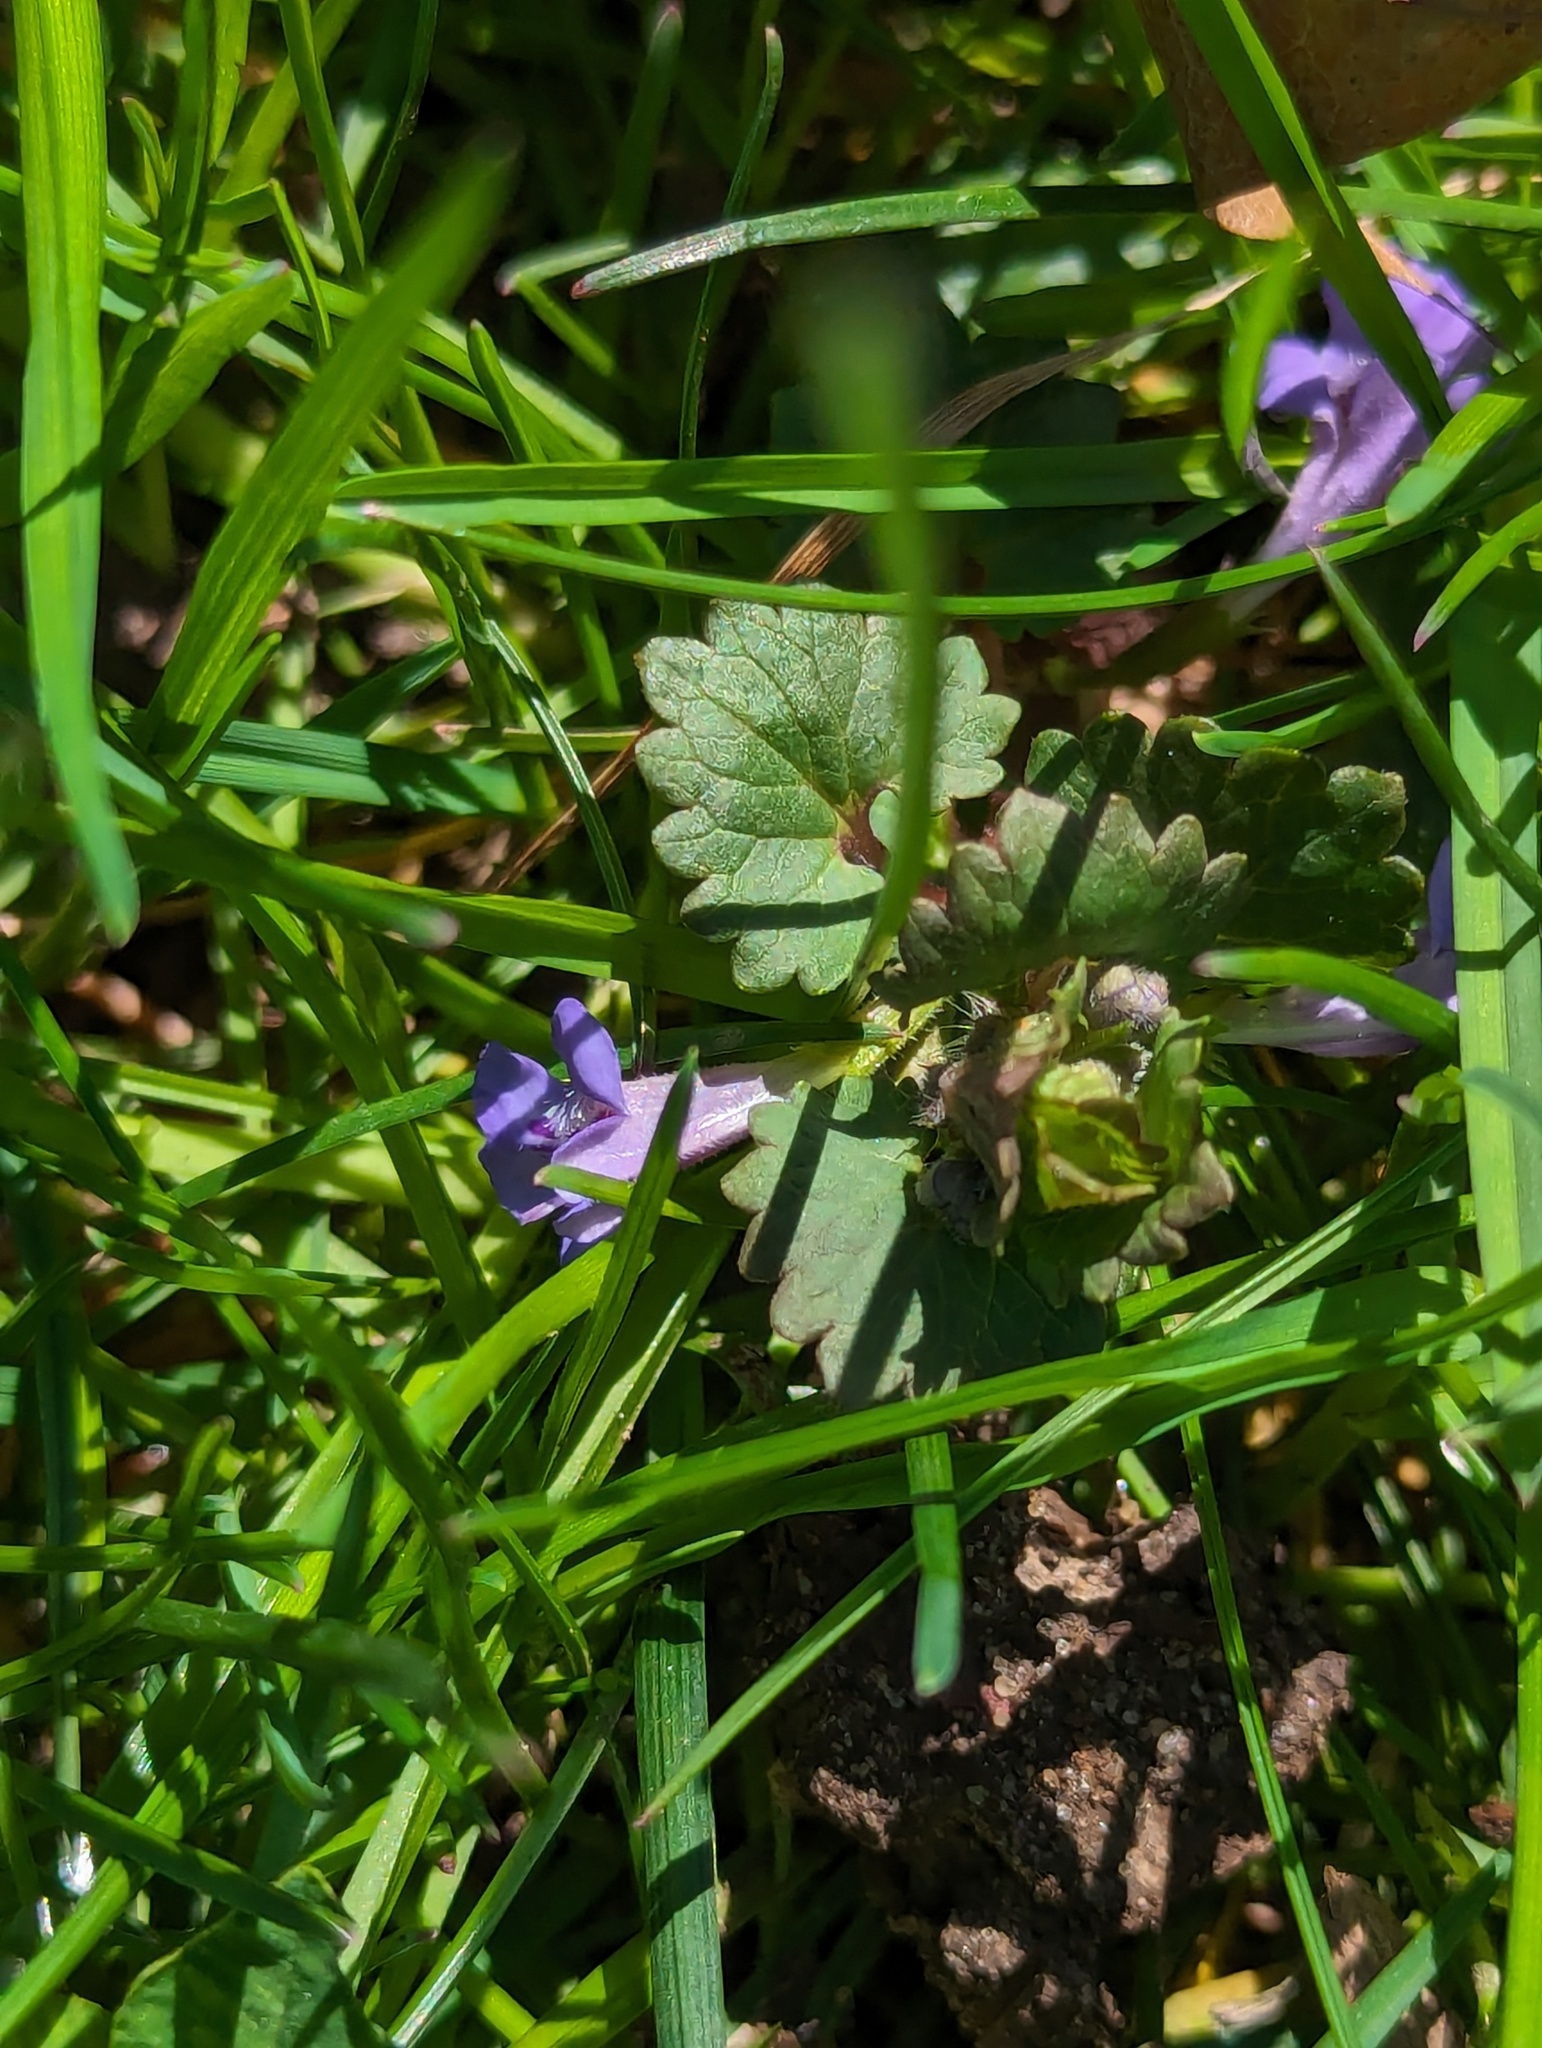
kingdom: Plantae
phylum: Tracheophyta
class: Magnoliopsida
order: Lamiales
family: Lamiaceae
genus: Glechoma
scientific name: Glechoma hederacea
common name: Ground ivy
